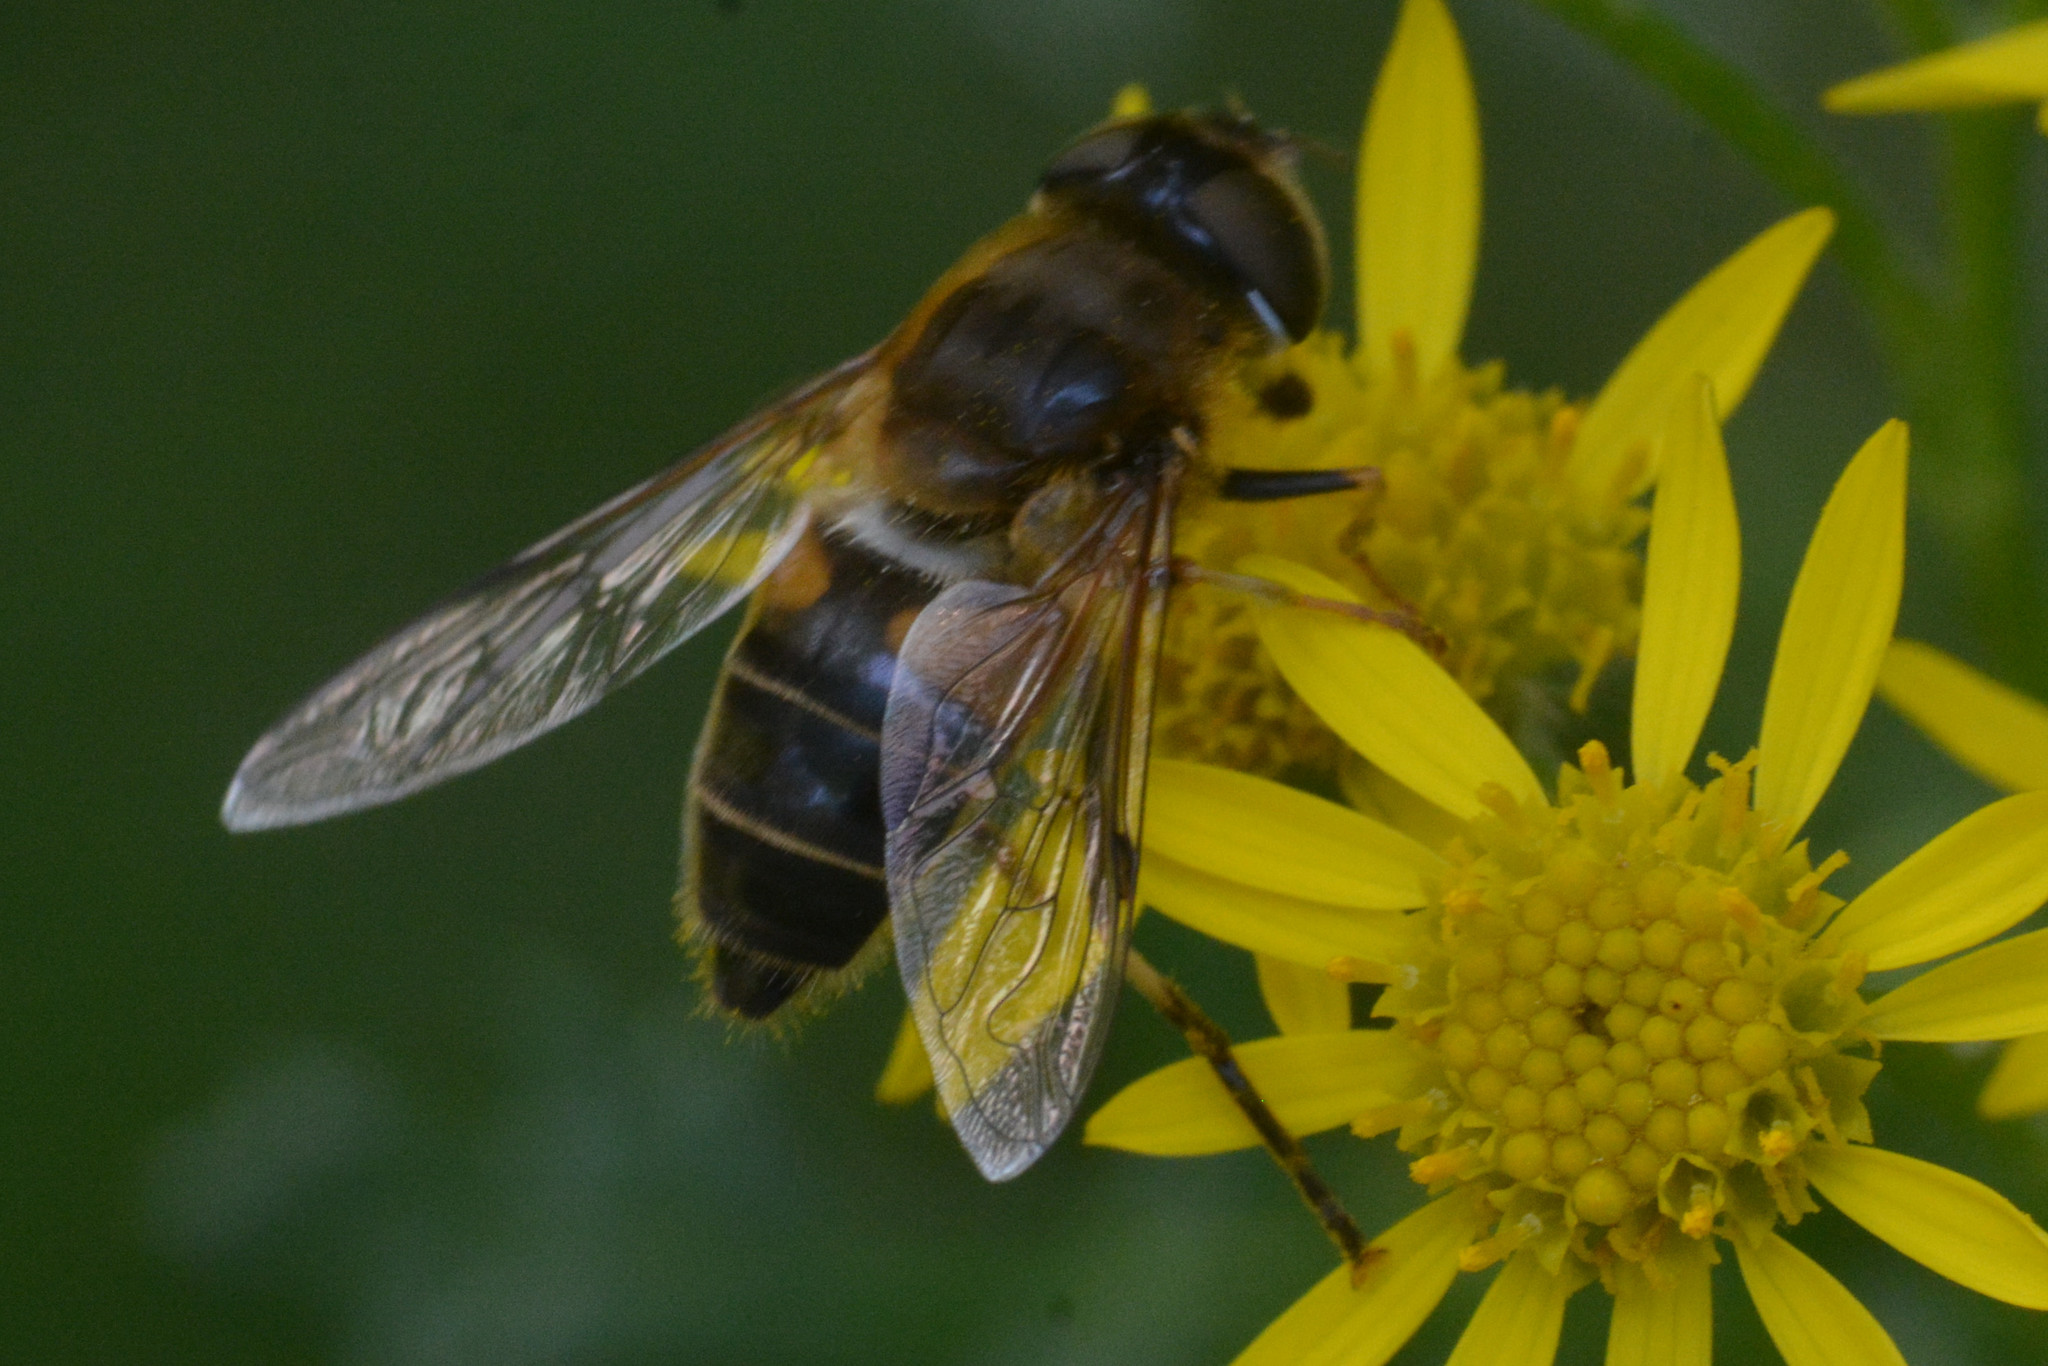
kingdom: Animalia
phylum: Arthropoda
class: Insecta
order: Diptera
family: Syrphidae
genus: Eristalis
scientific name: Eristalis pertinax
